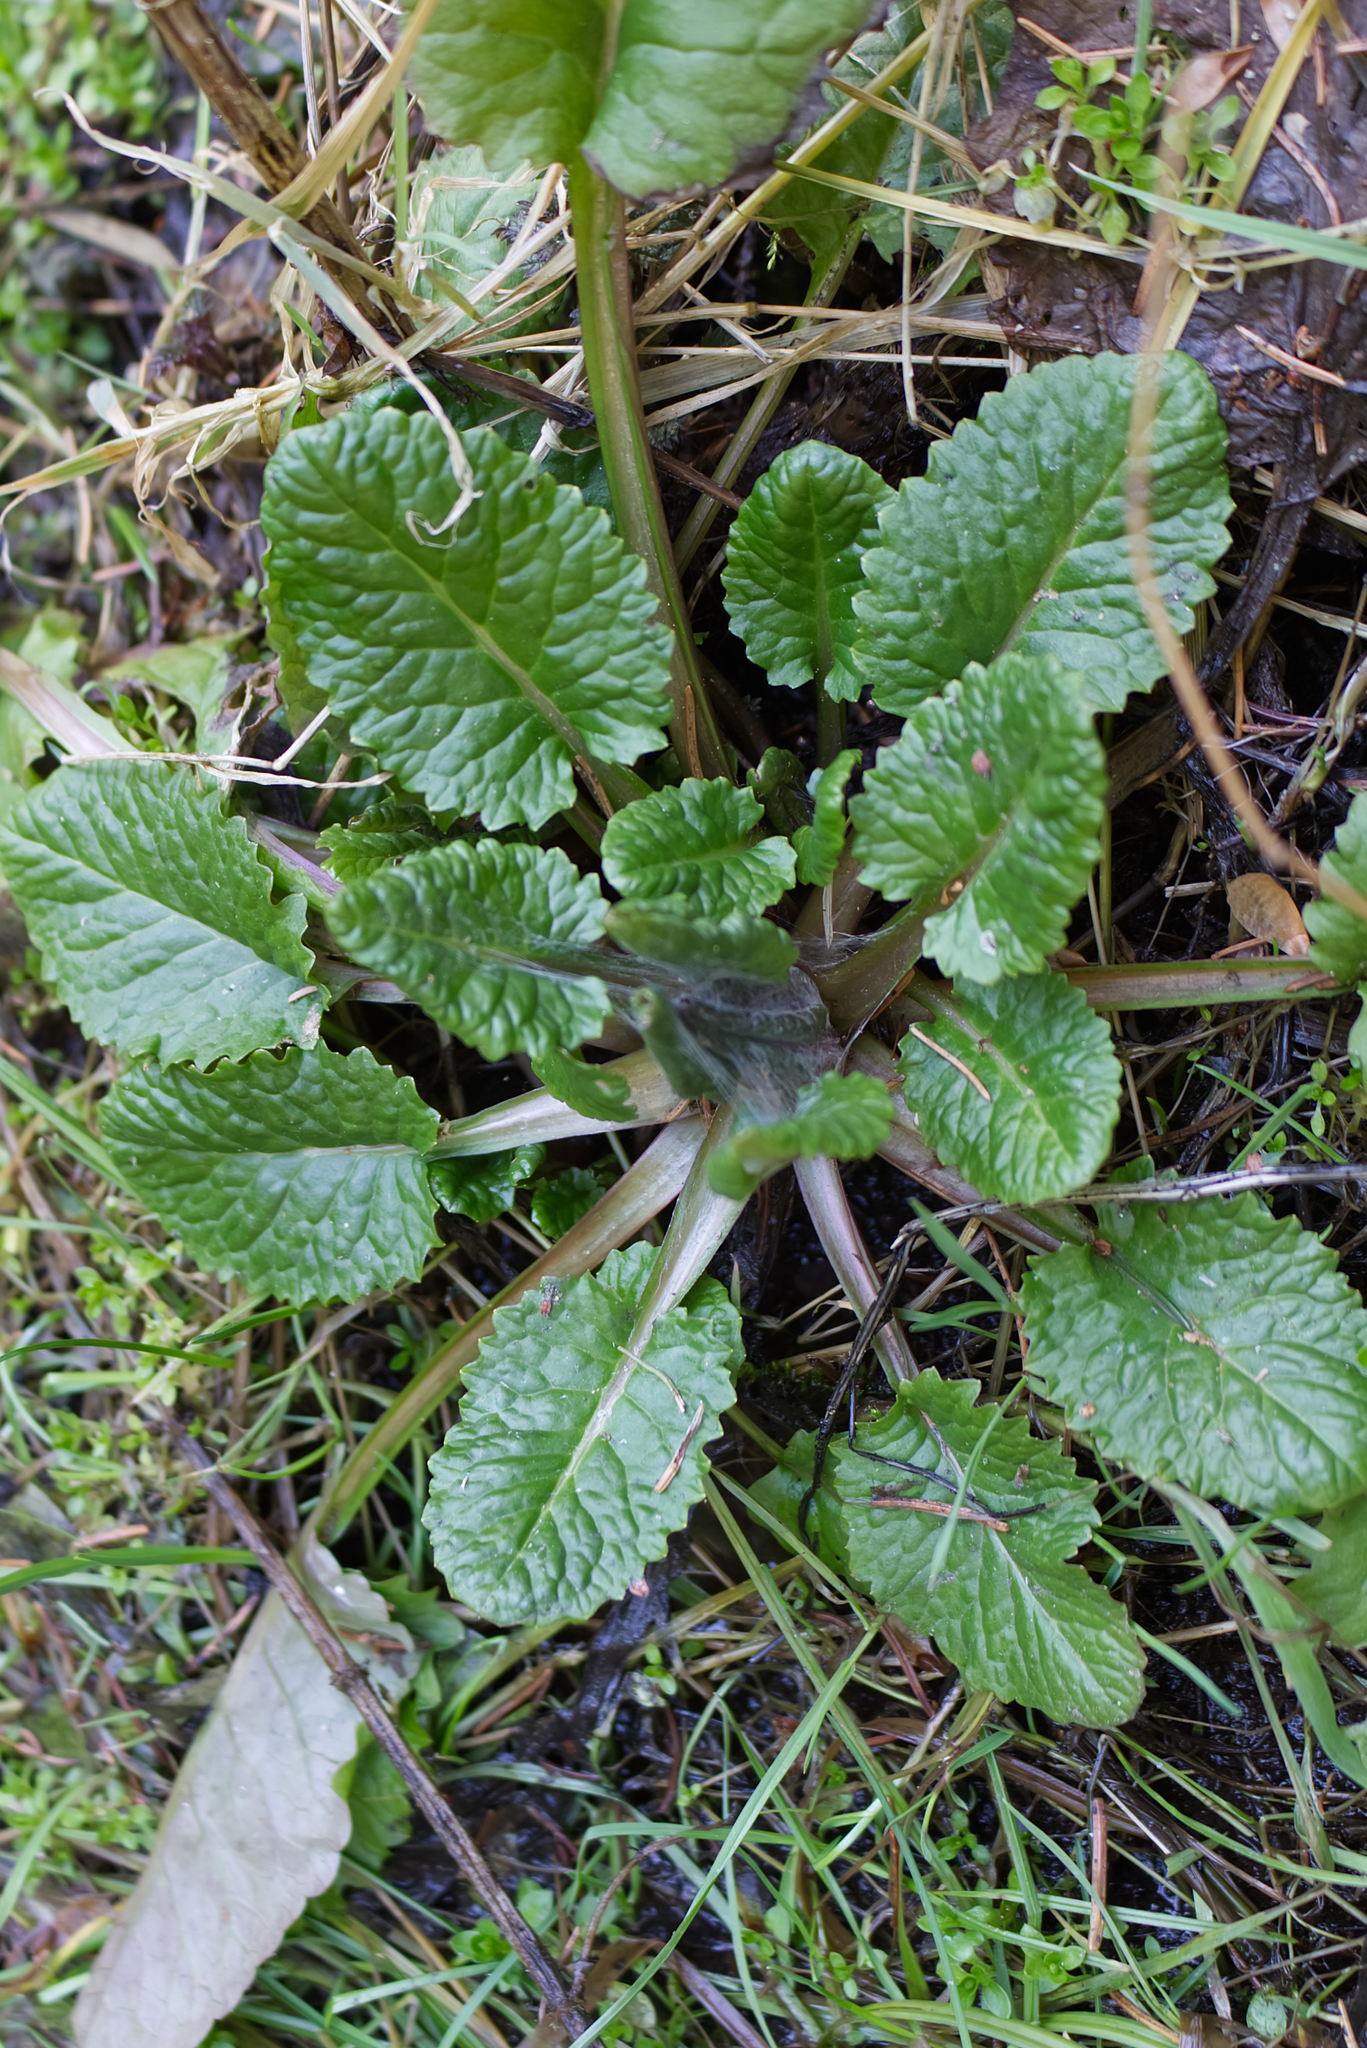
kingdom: Plantae
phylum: Tracheophyta
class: Magnoliopsida
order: Asterales
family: Asteraceae
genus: Tephroseris
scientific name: Tephroseris crispa
